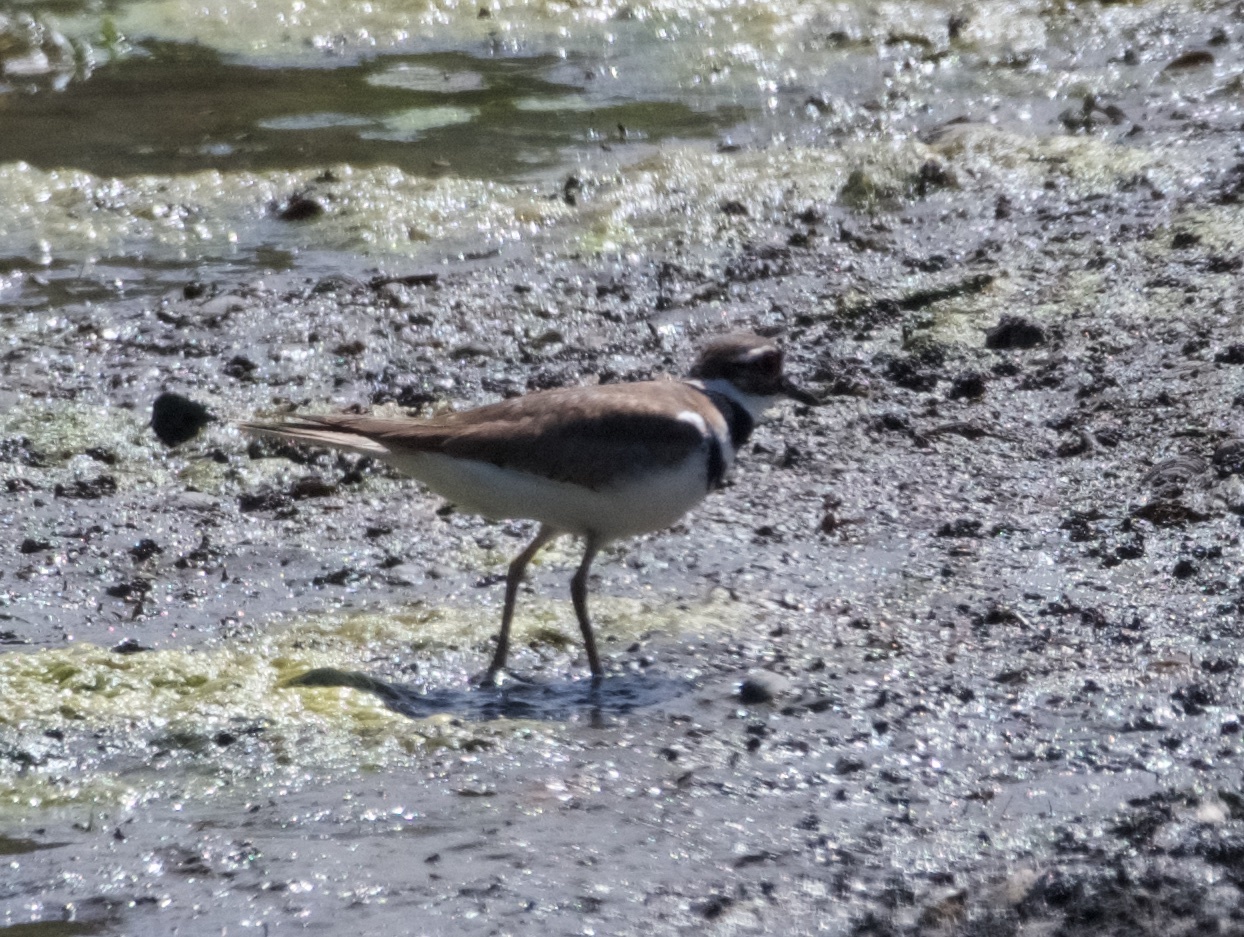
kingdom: Animalia
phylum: Chordata
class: Aves
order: Charadriiformes
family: Charadriidae
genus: Charadrius
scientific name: Charadrius vociferus
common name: Killdeer
